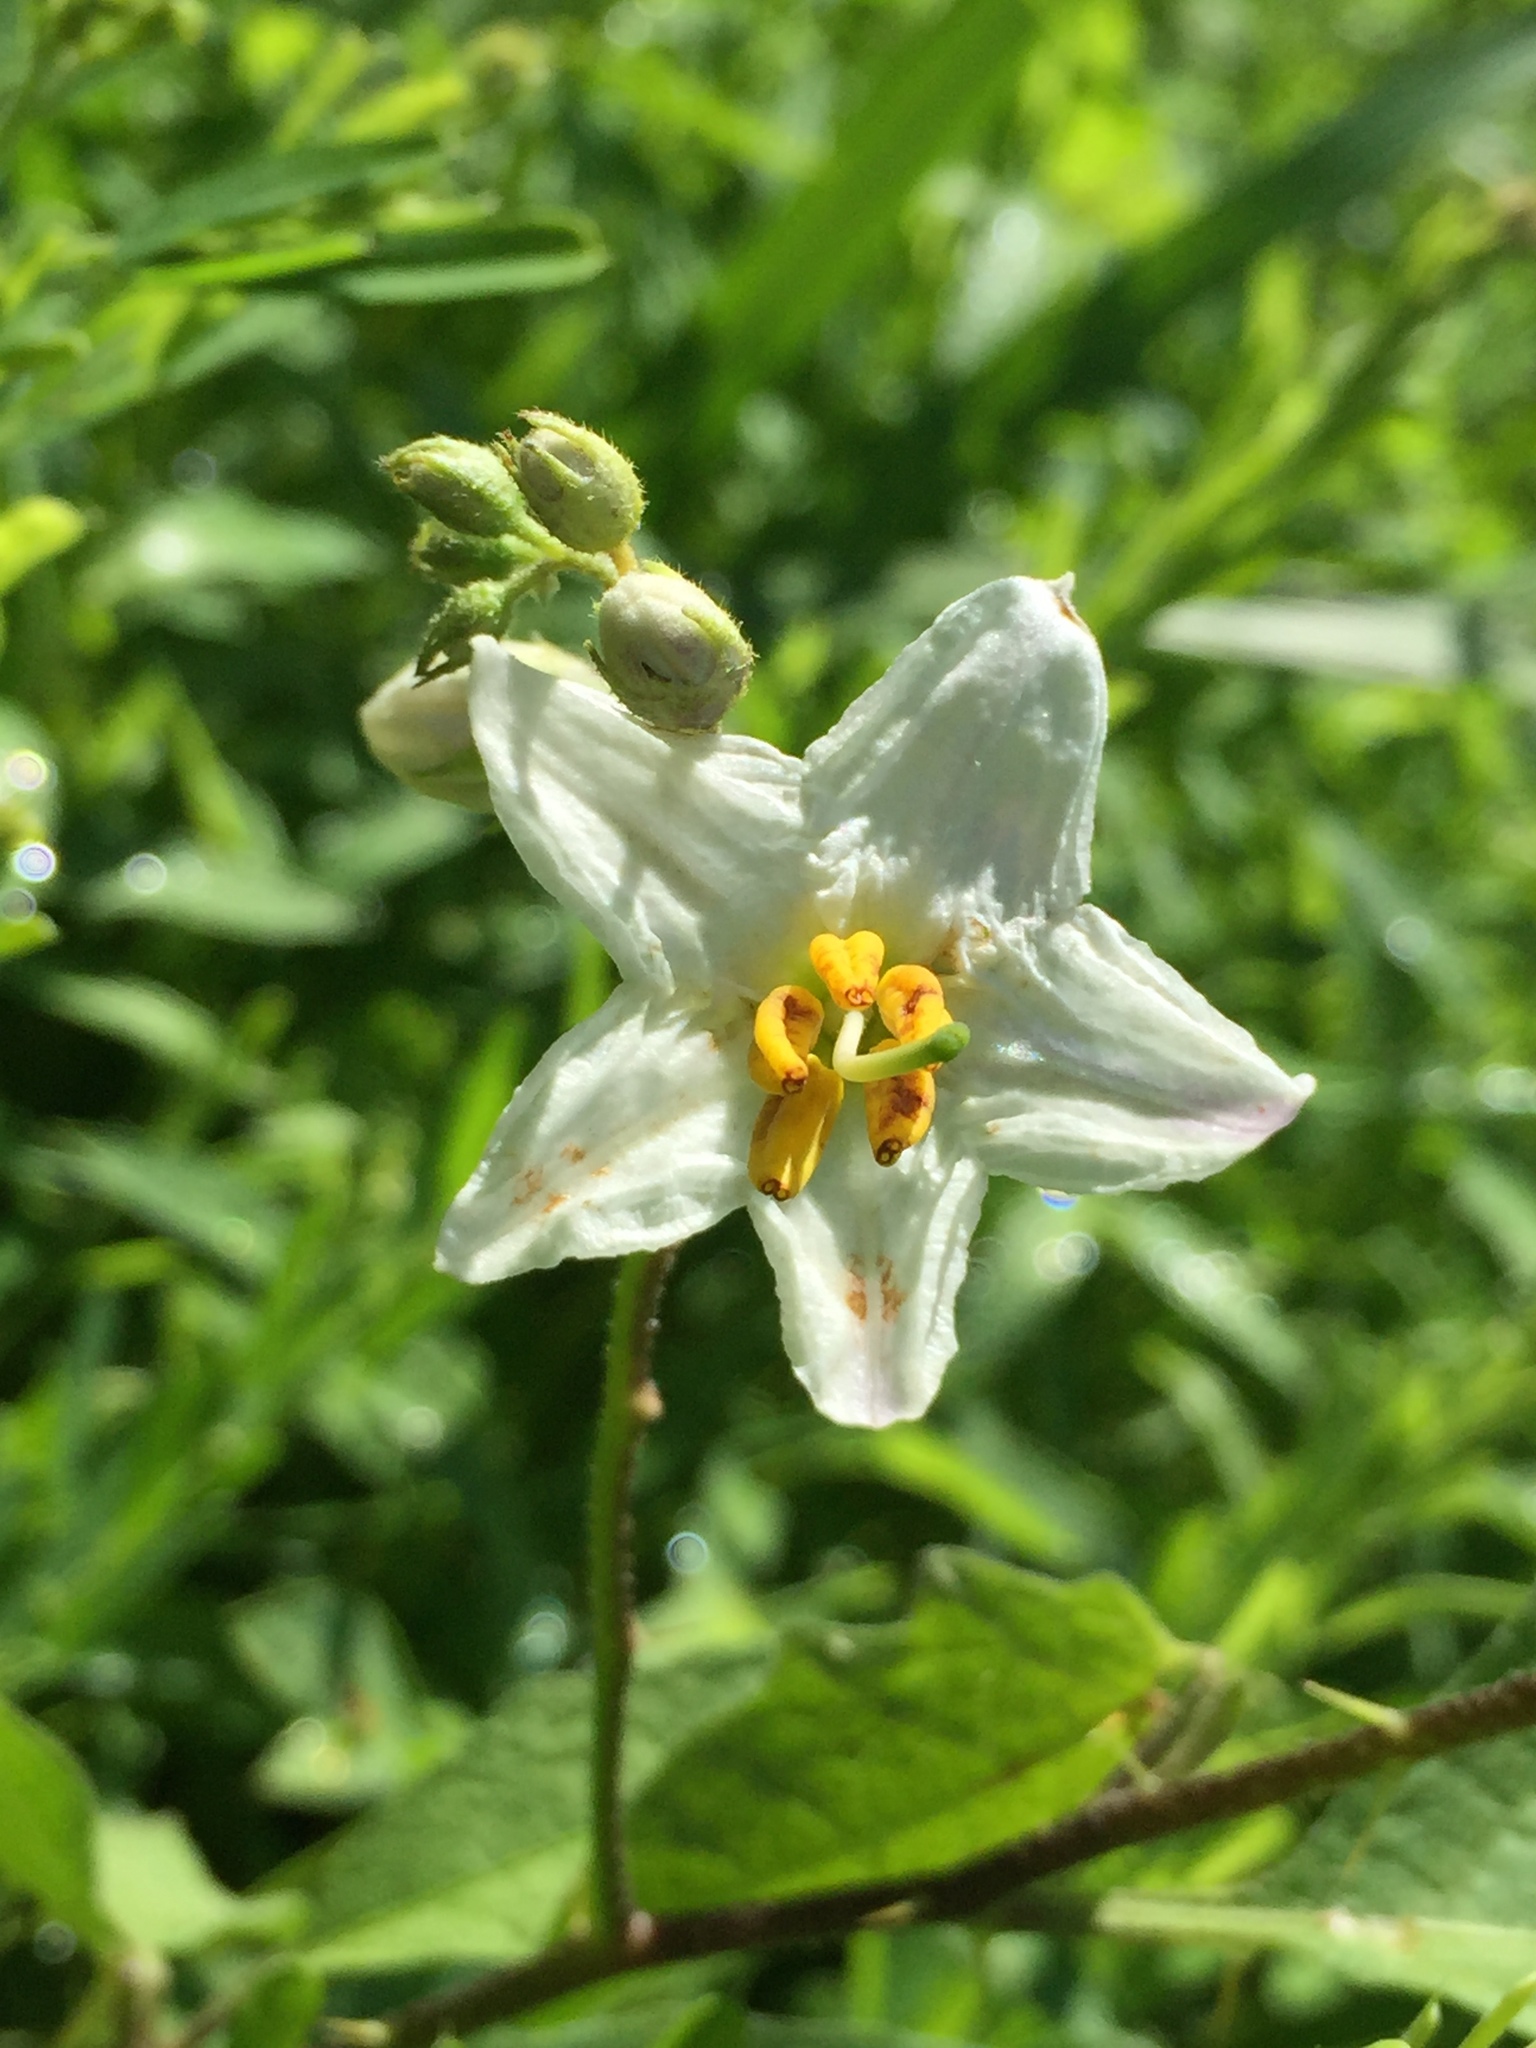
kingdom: Plantae
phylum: Tracheophyta
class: Magnoliopsida
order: Solanales
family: Solanaceae
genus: Solanum
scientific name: Solanum carolinense
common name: Horse-nettle
